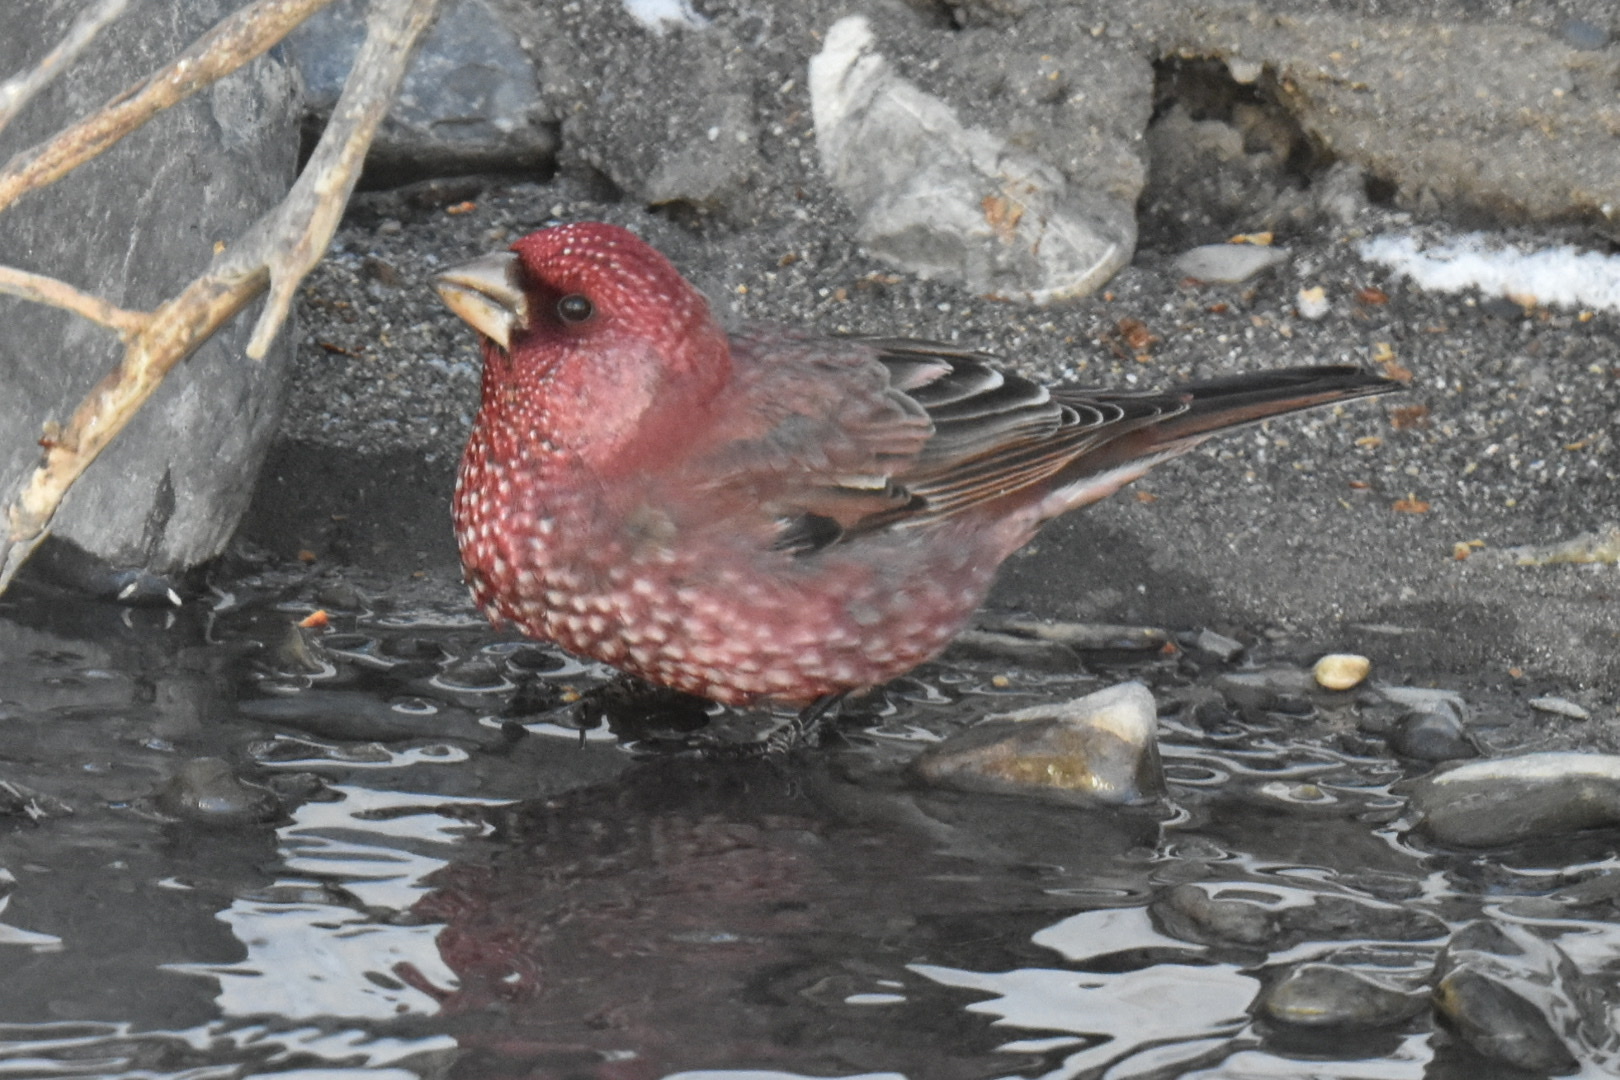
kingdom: Animalia
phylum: Chordata
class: Aves
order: Passeriformes
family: Fringillidae
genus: Carpodacus
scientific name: Carpodacus rubicilla
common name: Great rosefinch
